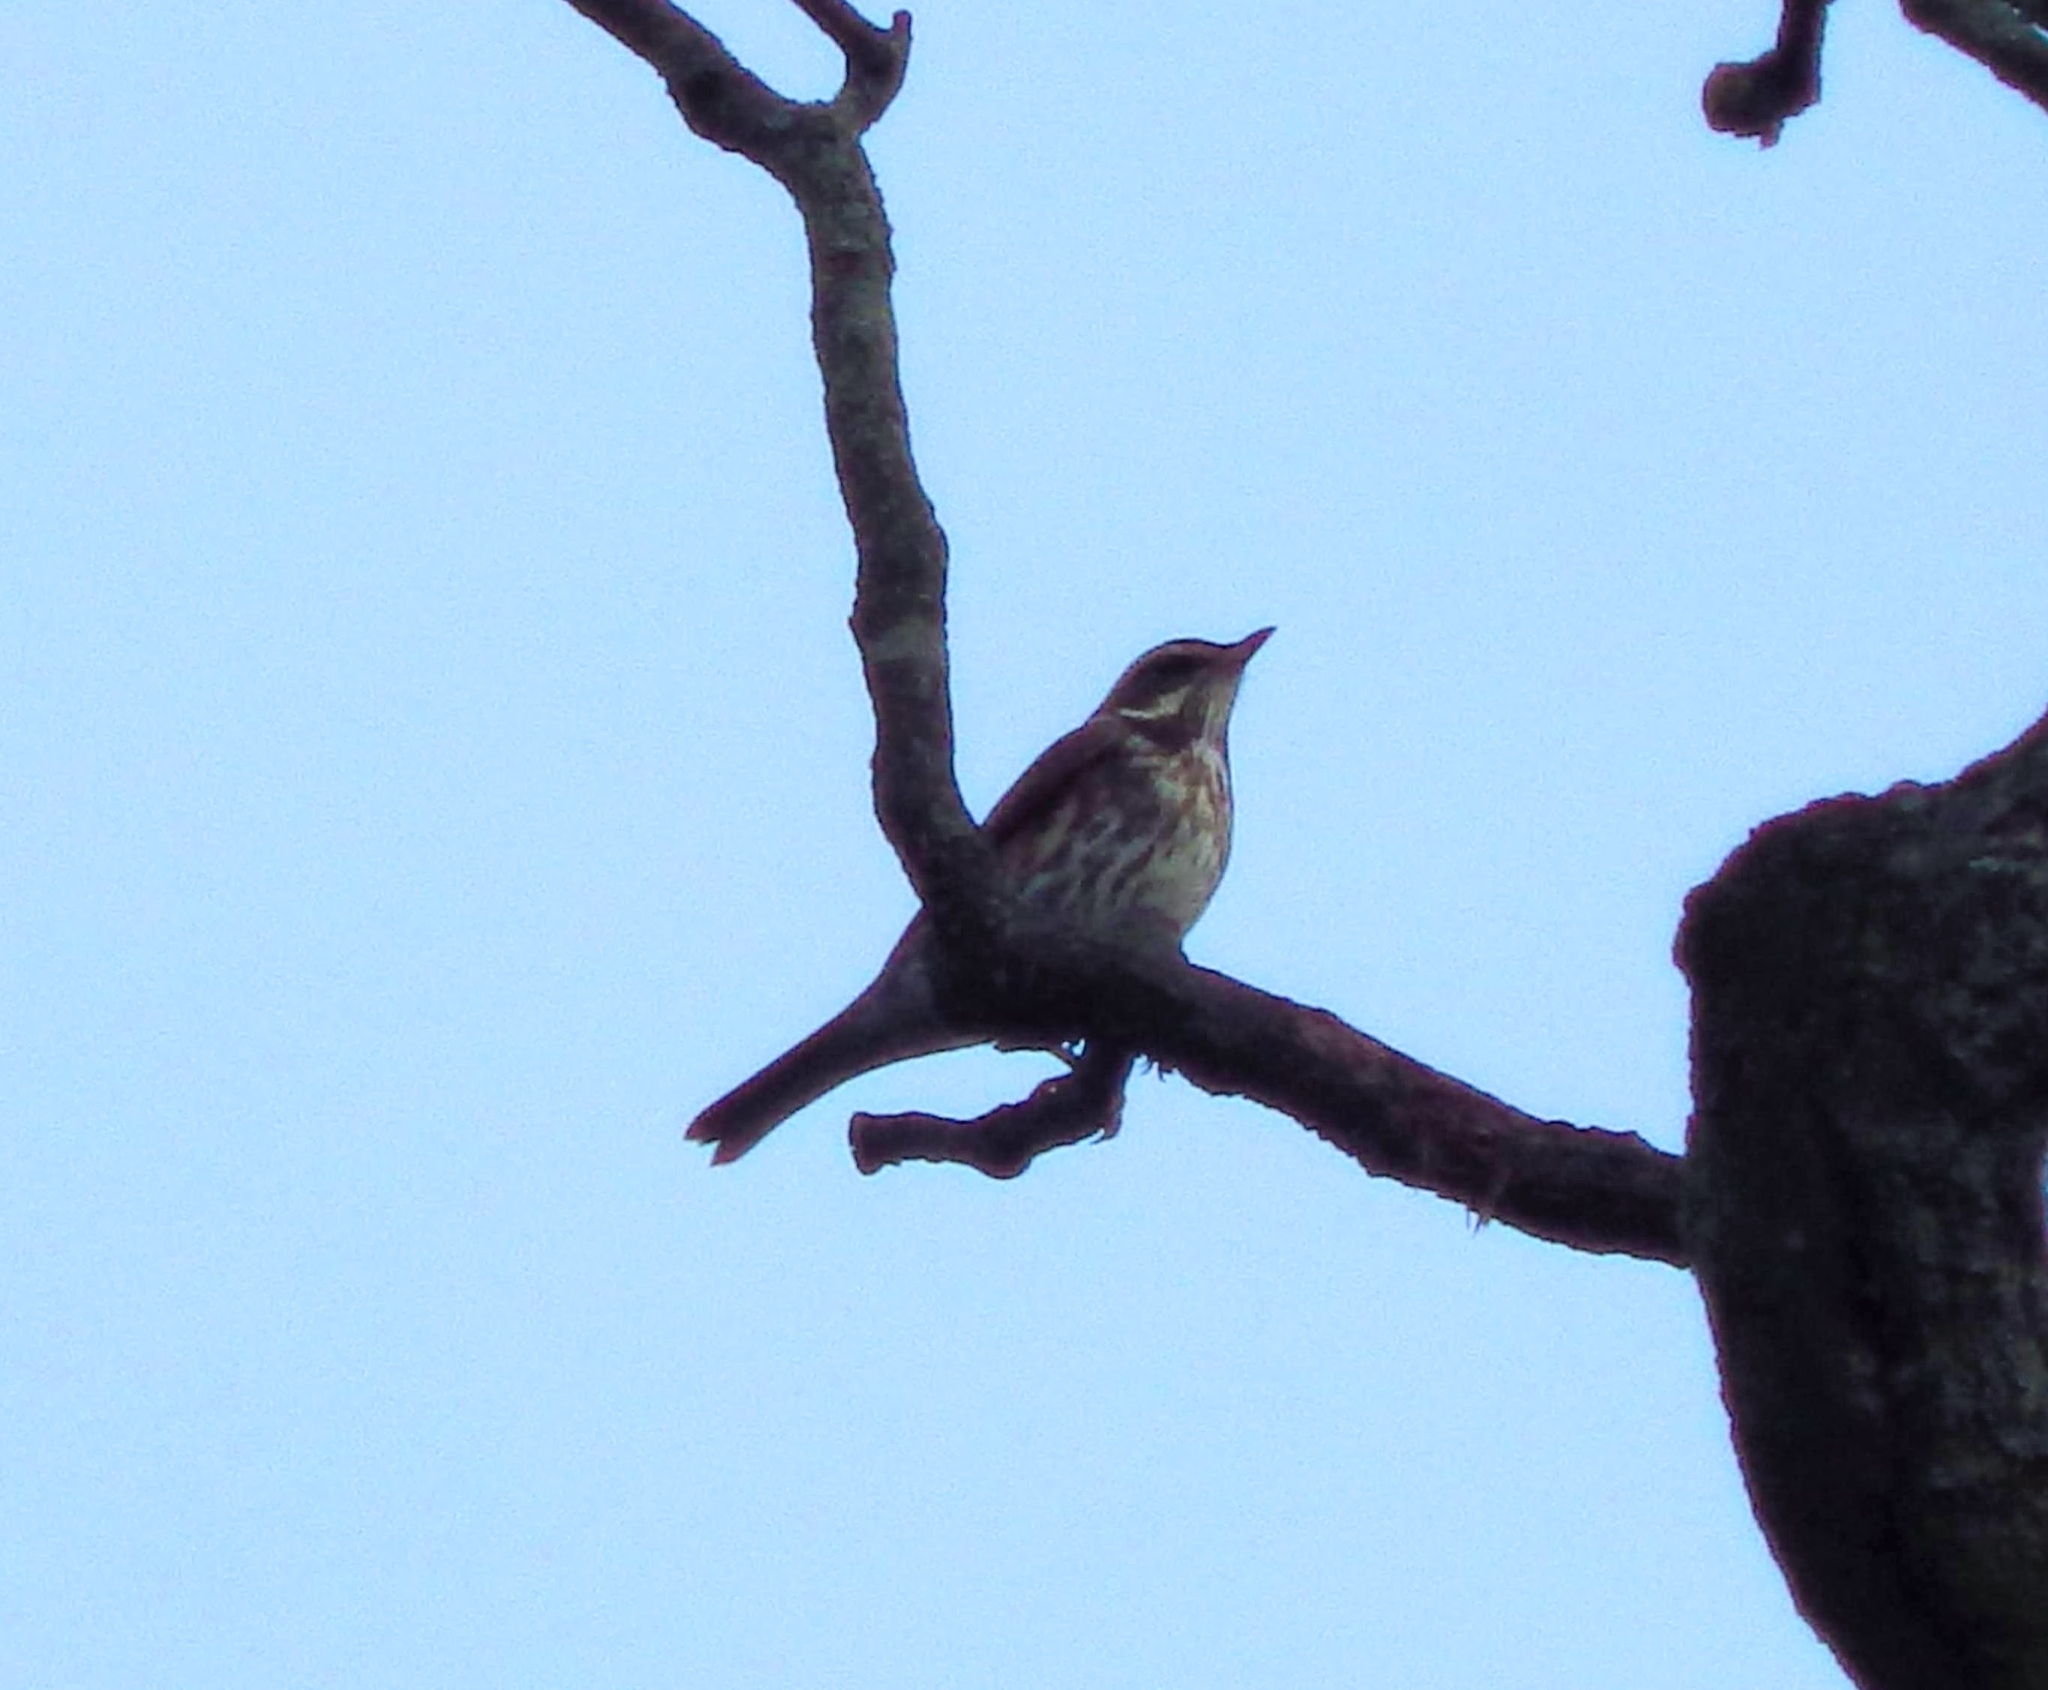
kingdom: Animalia
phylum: Chordata
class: Aves
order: Passeriformes
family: Turdidae
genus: Turdus
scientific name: Turdus iliacus
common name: Redwing
